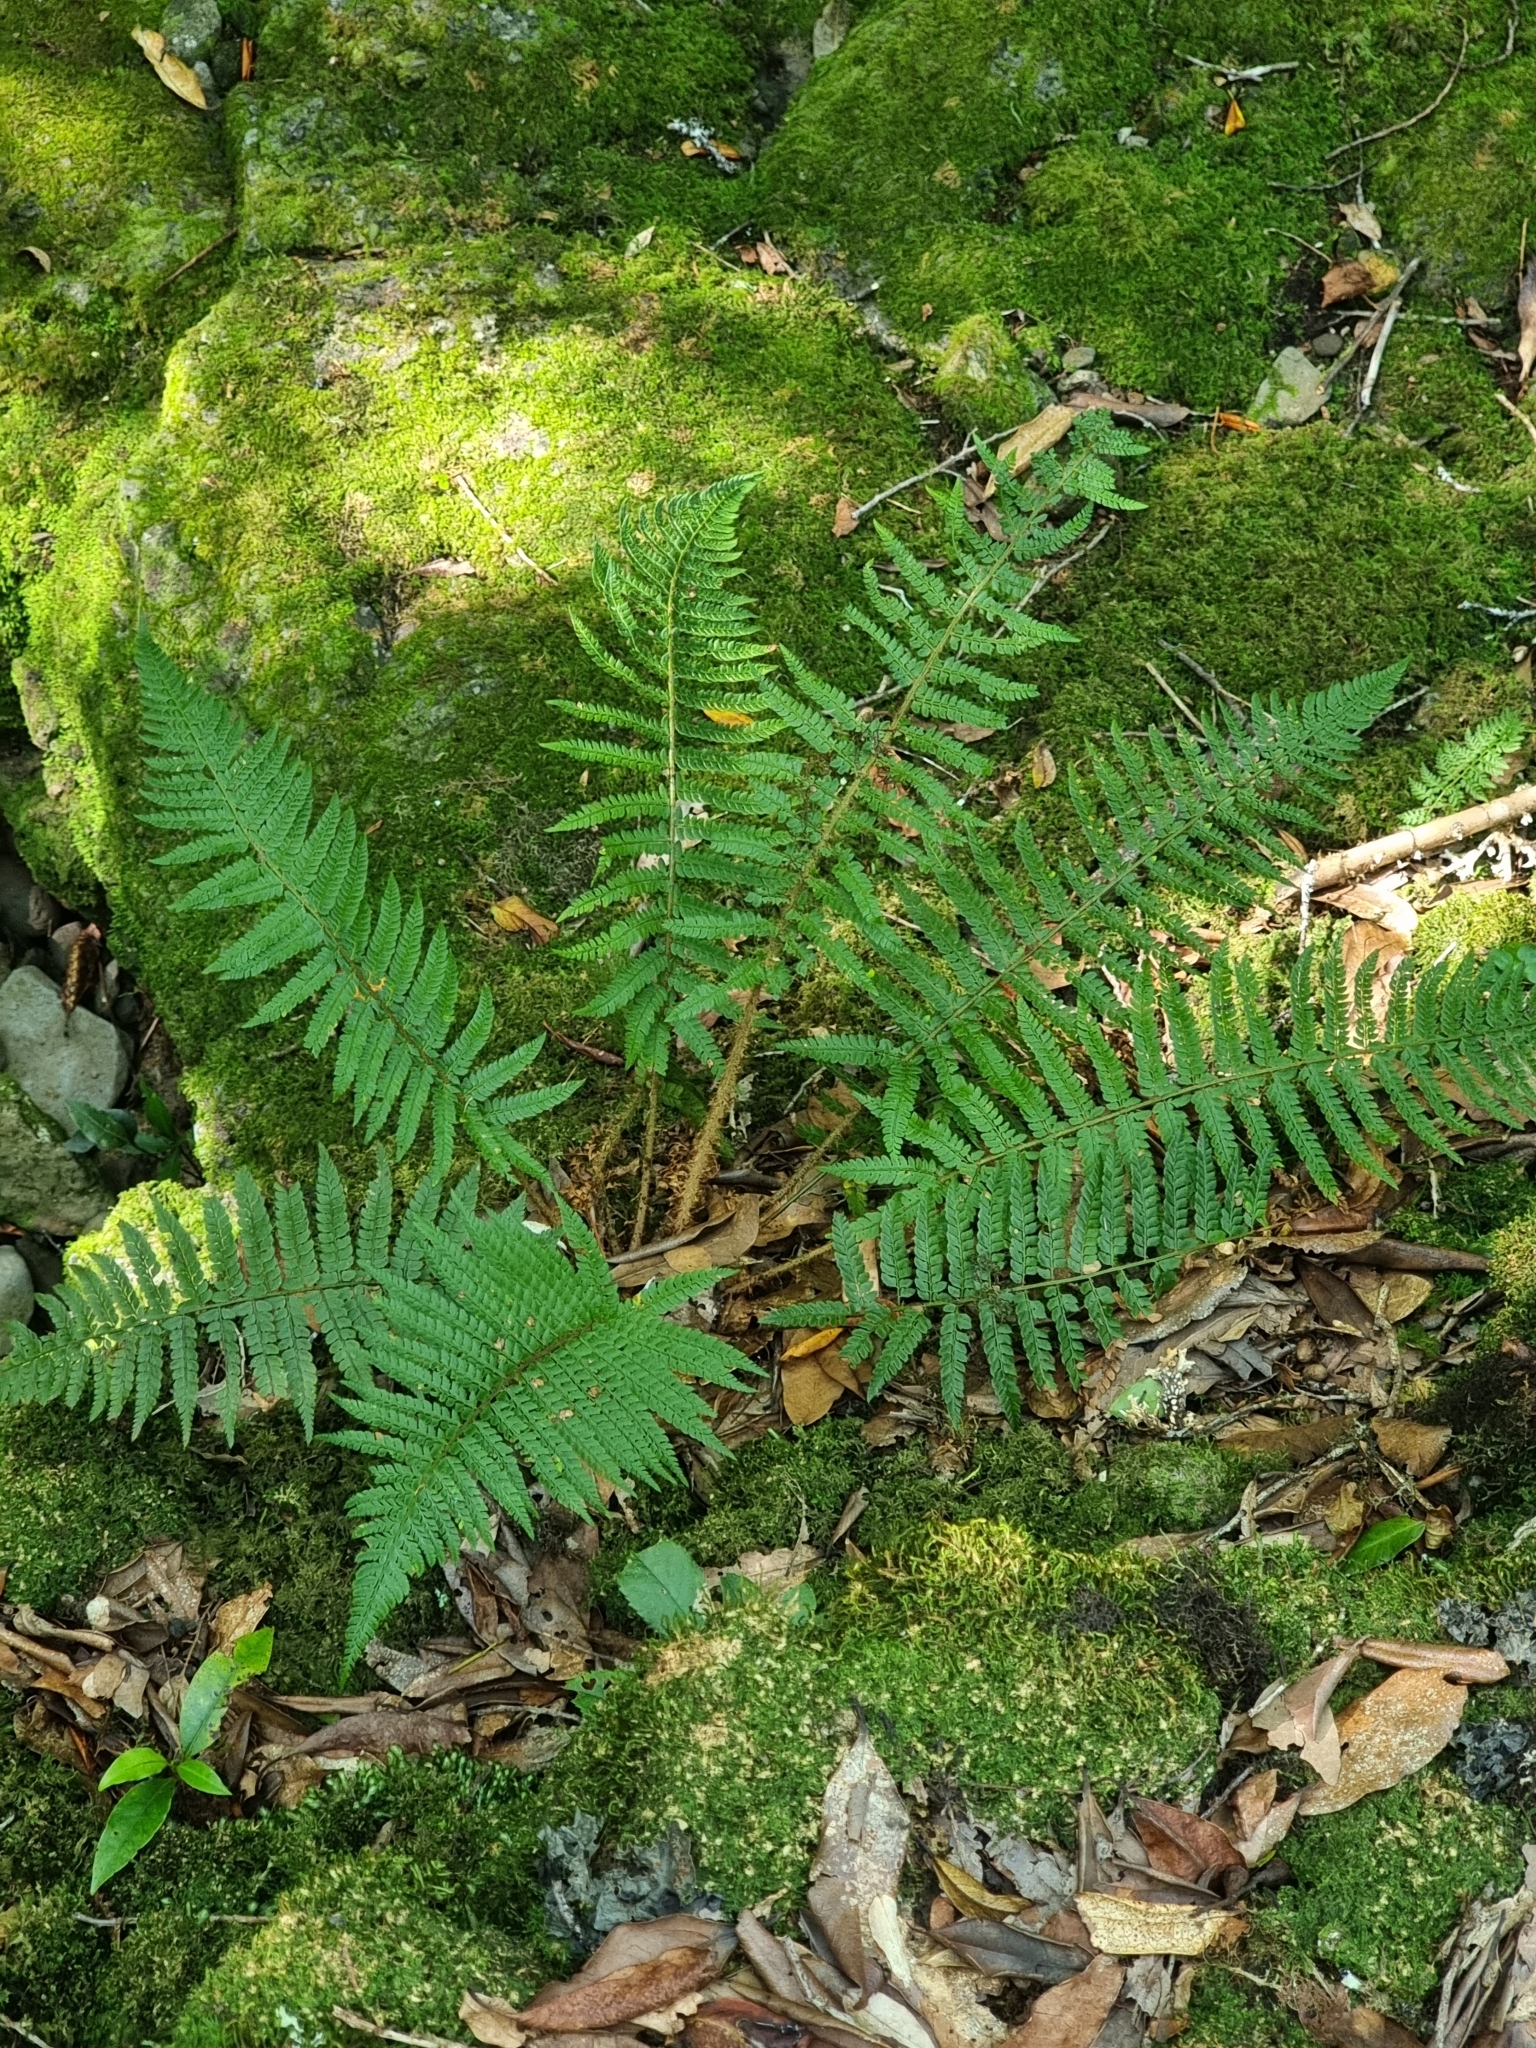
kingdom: Plantae
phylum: Tracheophyta
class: Polypodiopsida
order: Polypodiales
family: Dryopteridaceae
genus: Polystichum
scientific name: Polystichum setiferum
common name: Soft shield-fern
